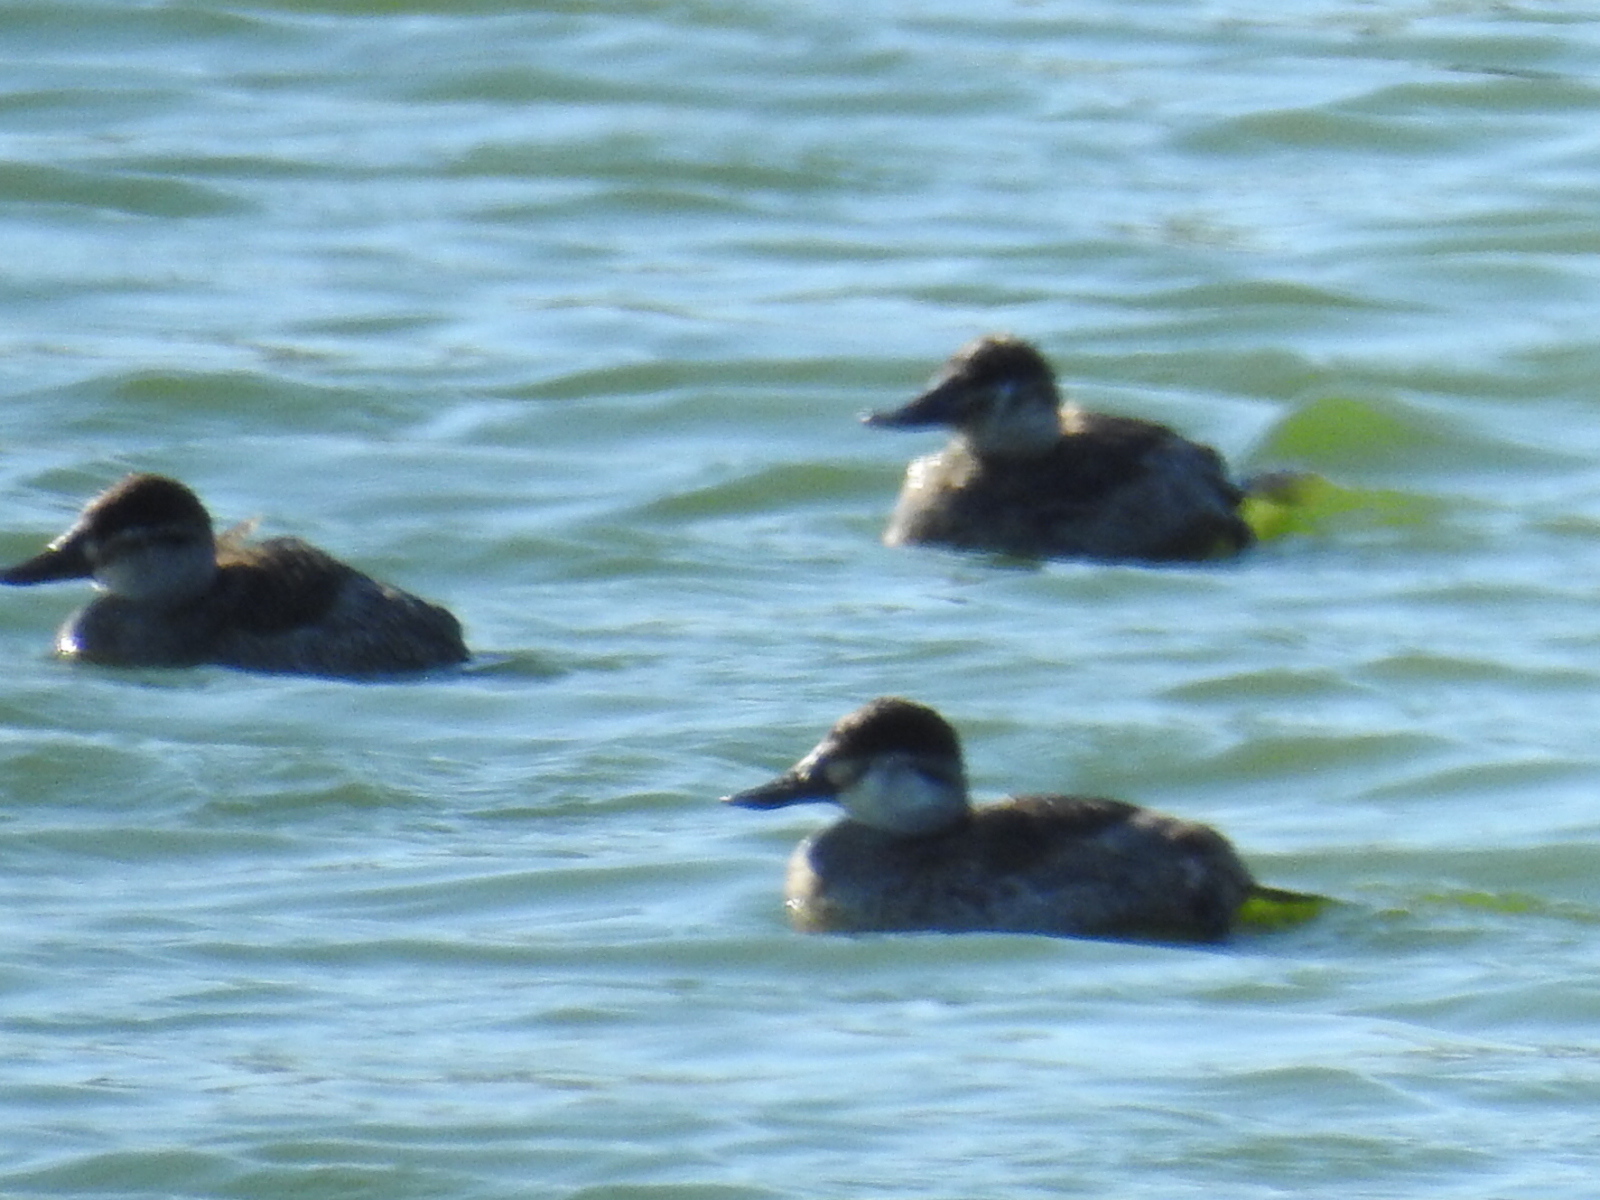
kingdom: Animalia
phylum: Chordata
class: Aves
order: Anseriformes
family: Anatidae
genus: Oxyura
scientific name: Oxyura jamaicensis
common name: Ruddy duck
